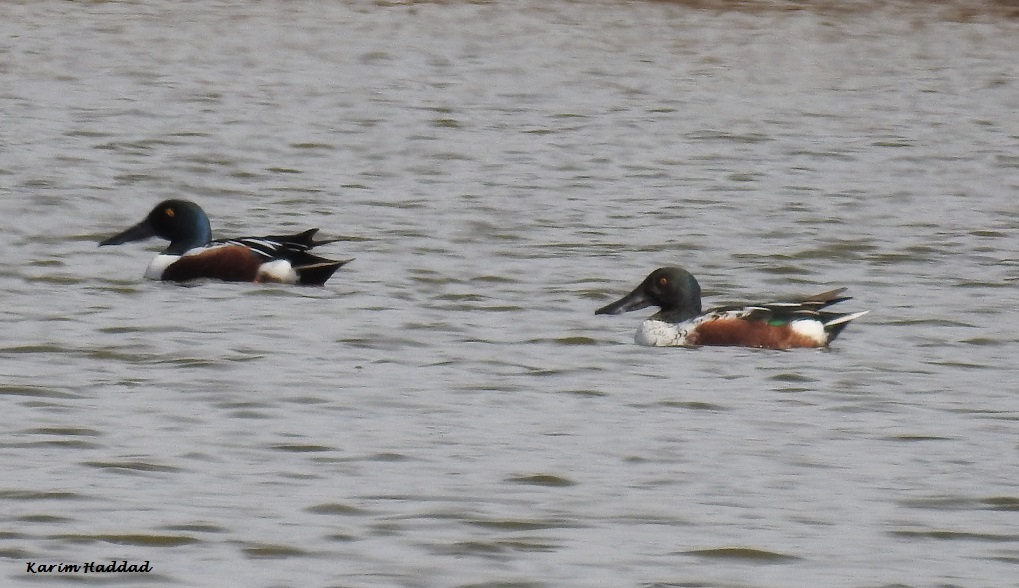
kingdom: Animalia
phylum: Chordata
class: Aves
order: Anseriformes
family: Anatidae
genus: Spatula
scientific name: Spatula clypeata
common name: Northern shoveler
